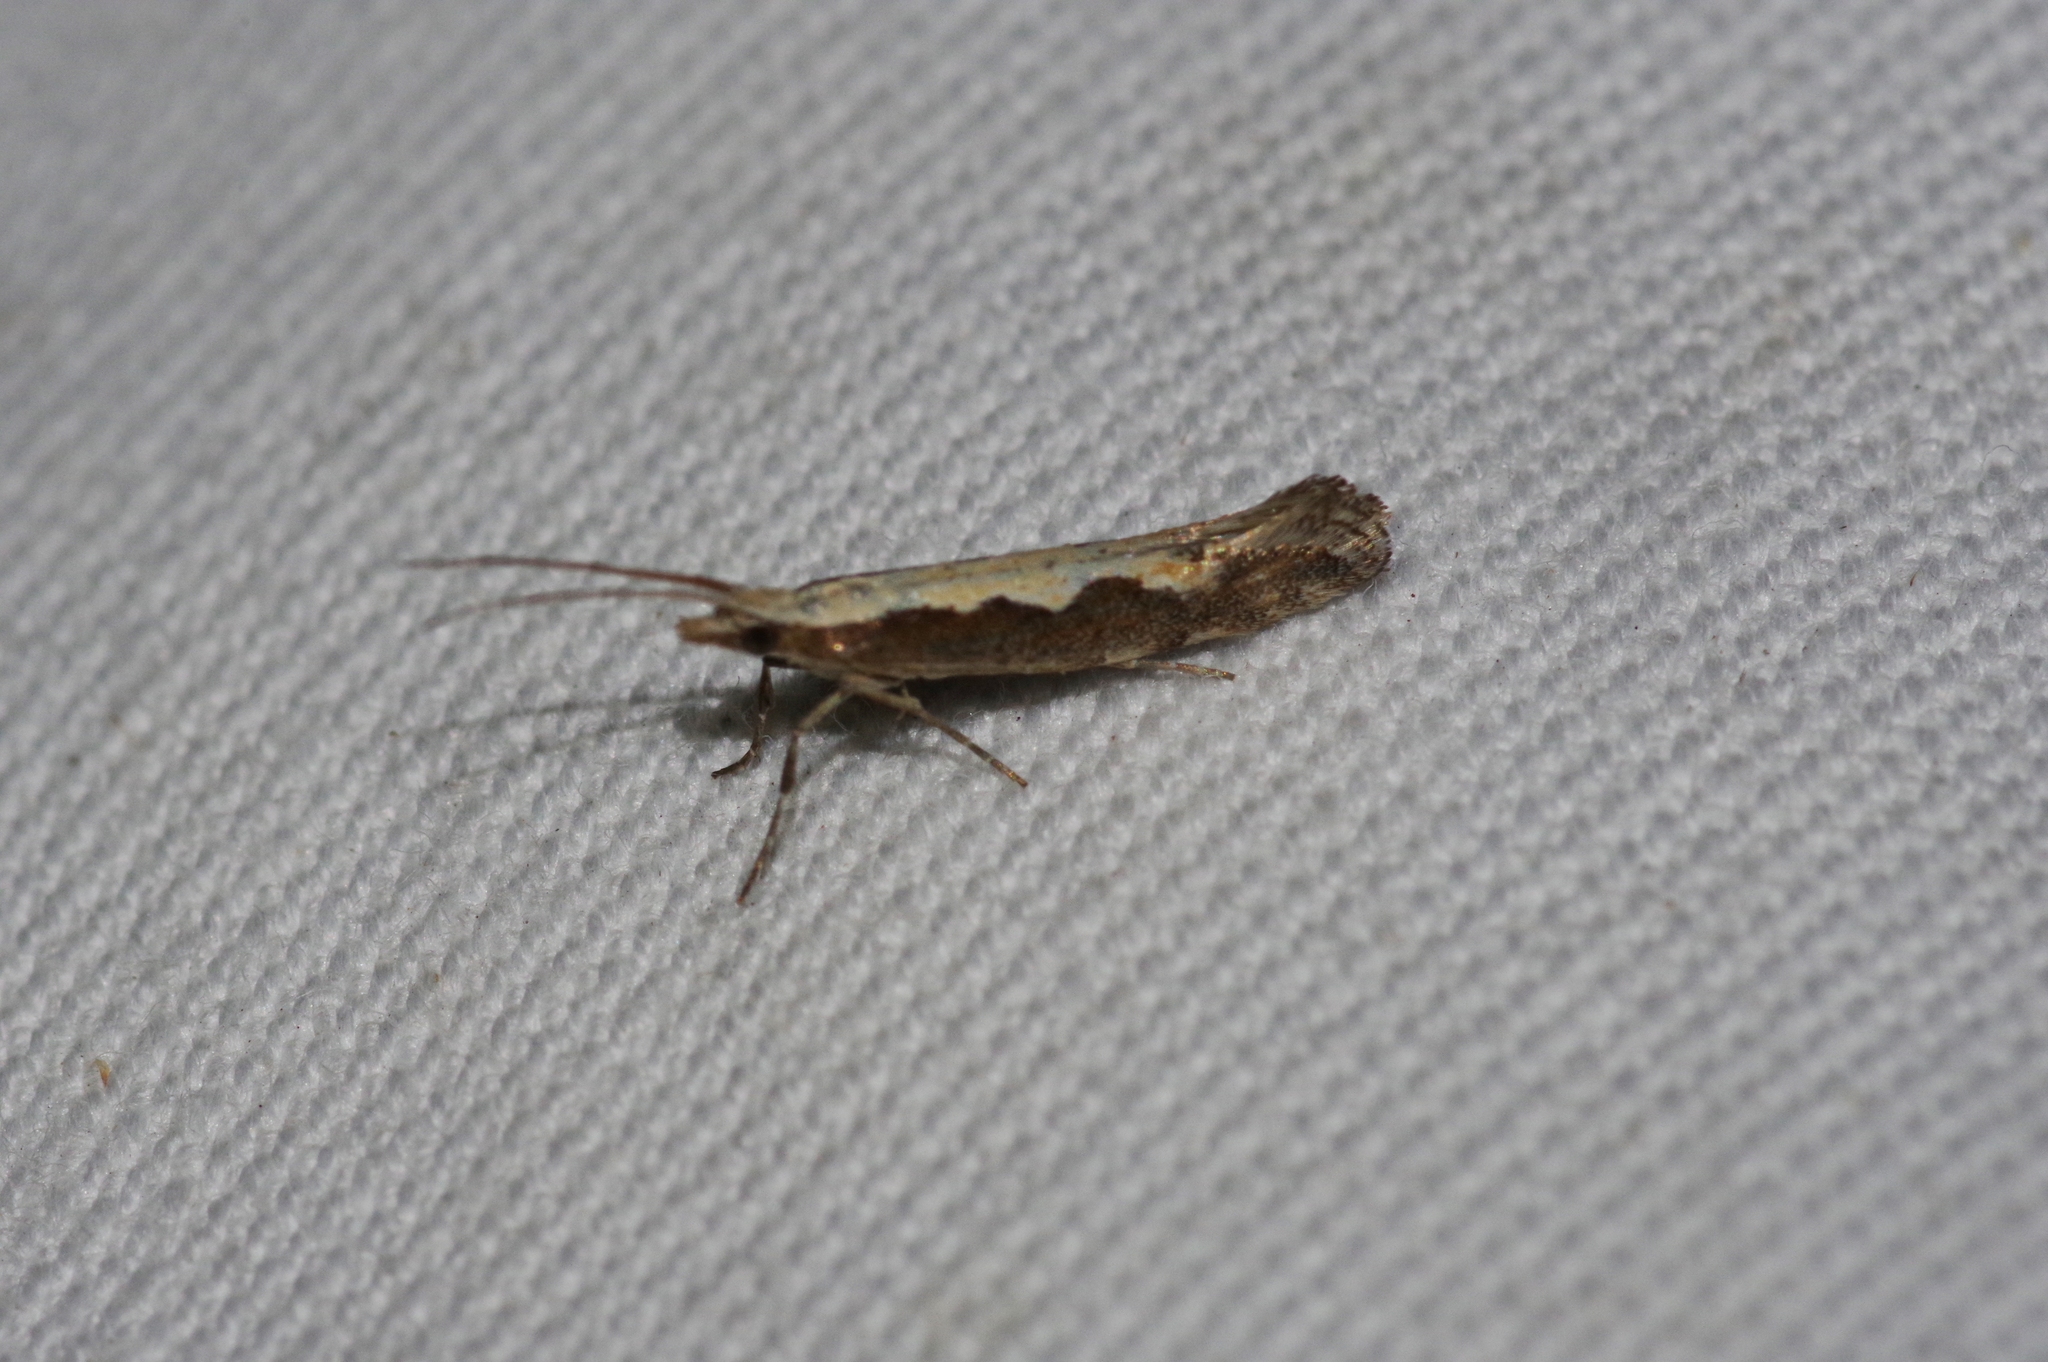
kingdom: Animalia
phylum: Arthropoda
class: Insecta
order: Lepidoptera
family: Plutellidae
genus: Plutella
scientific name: Plutella xylostella
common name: Diamond-back moth
